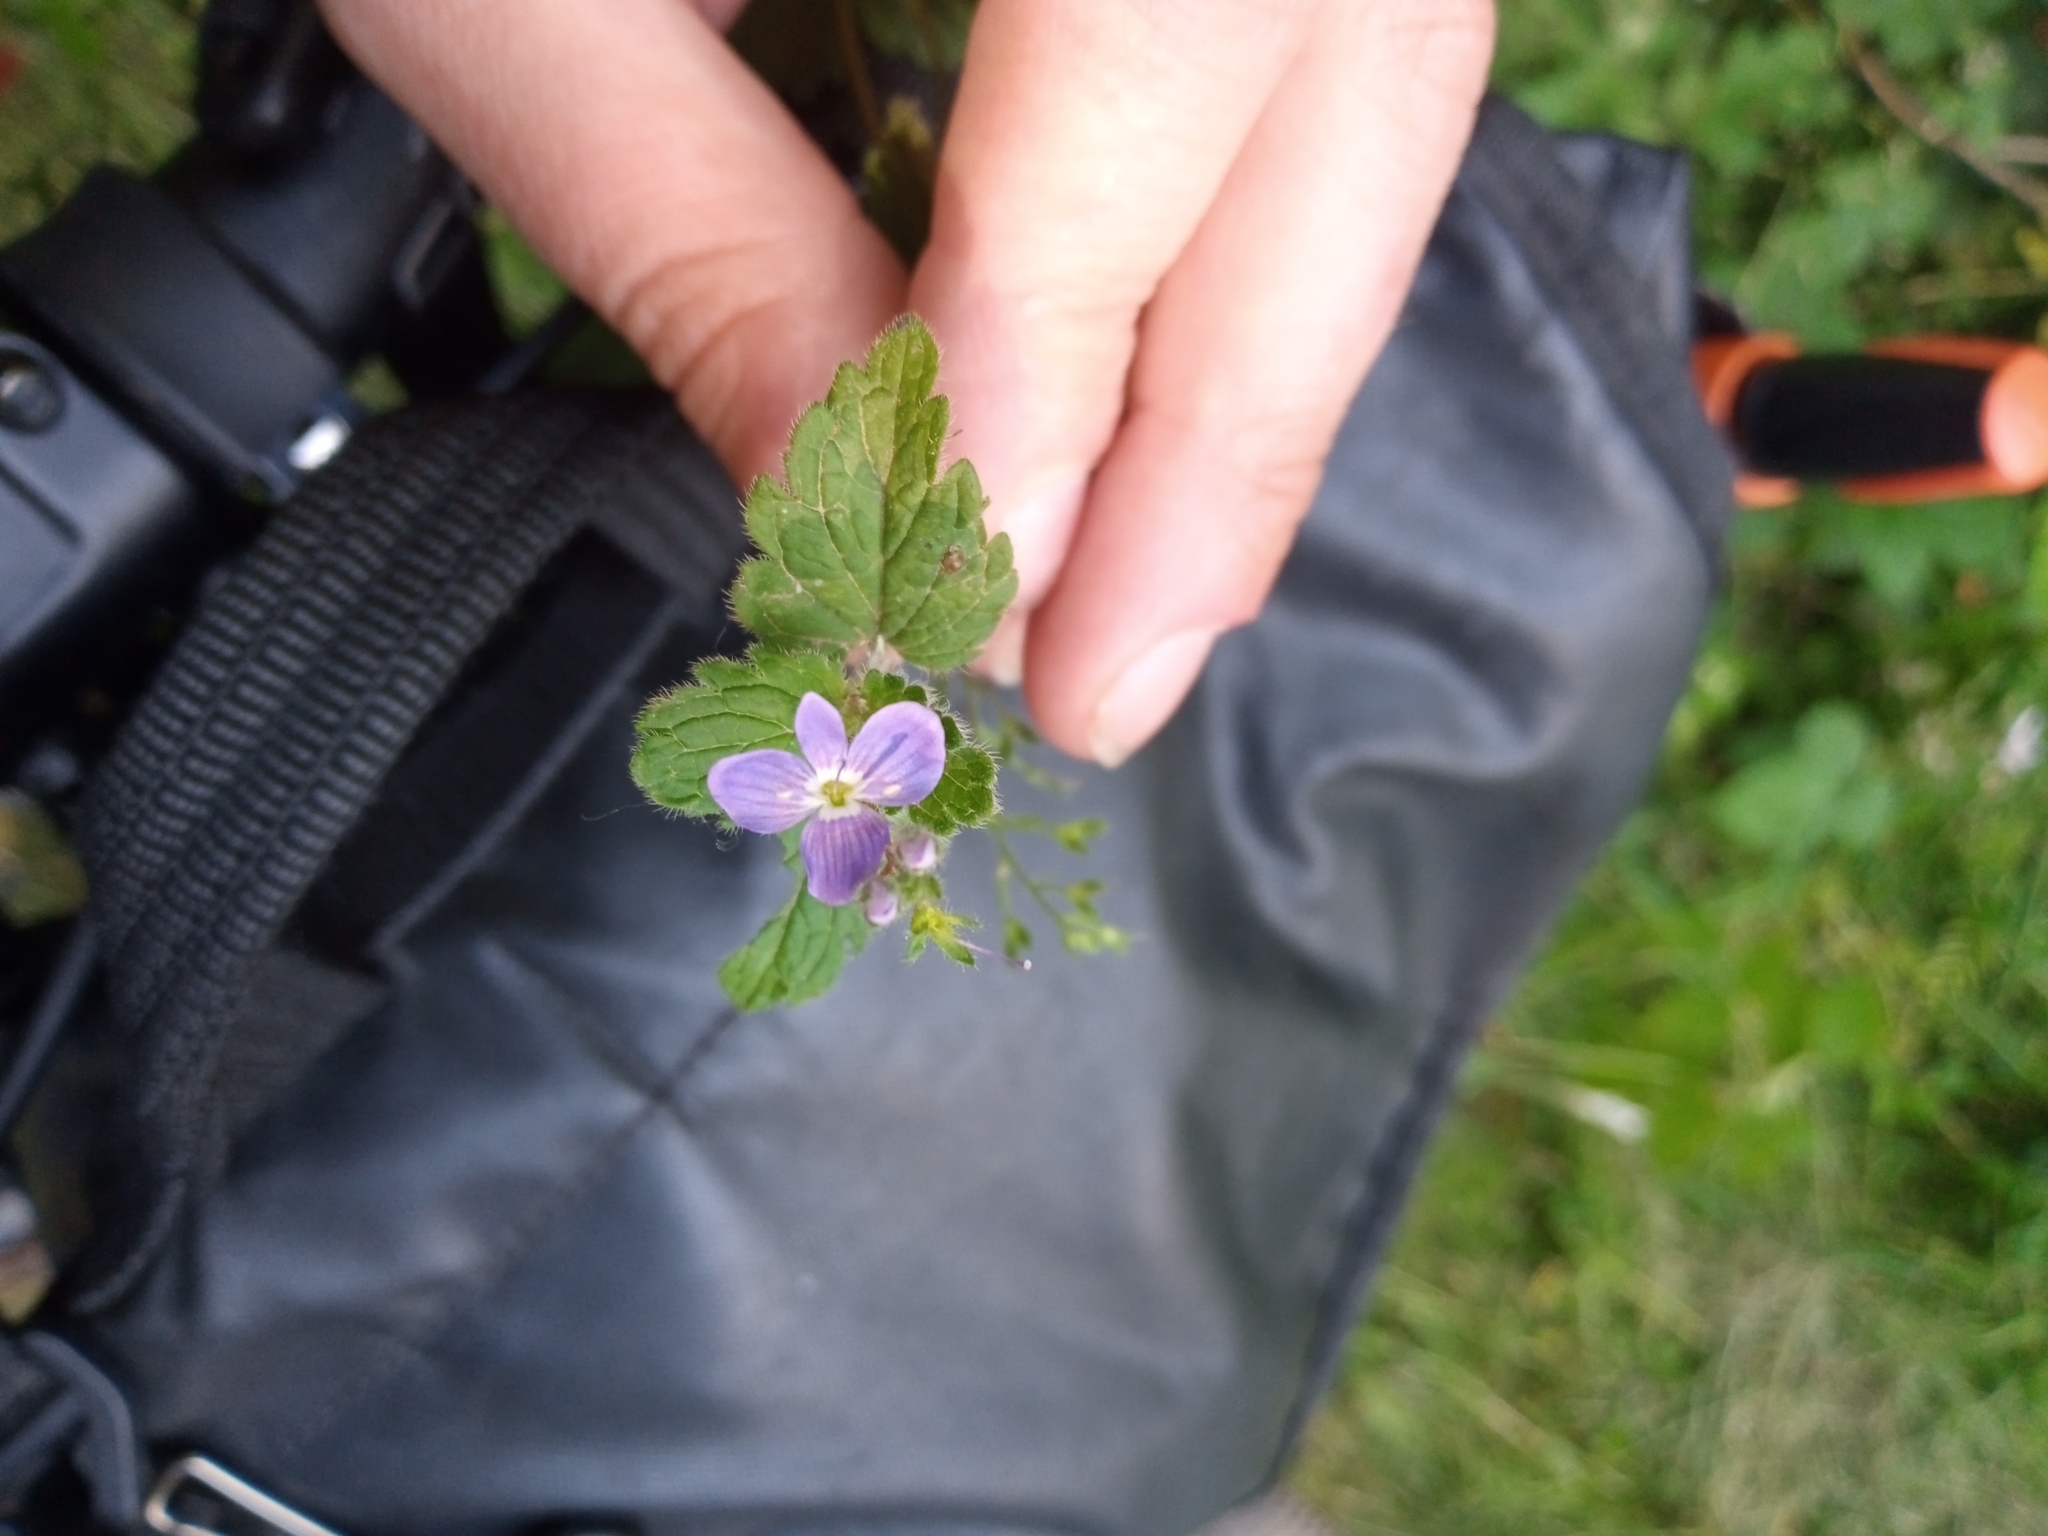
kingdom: Plantae
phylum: Tracheophyta
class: Magnoliopsida
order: Lamiales
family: Plantaginaceae
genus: Veronica
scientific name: Veronica chamaedrys
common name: Germander speedwell
